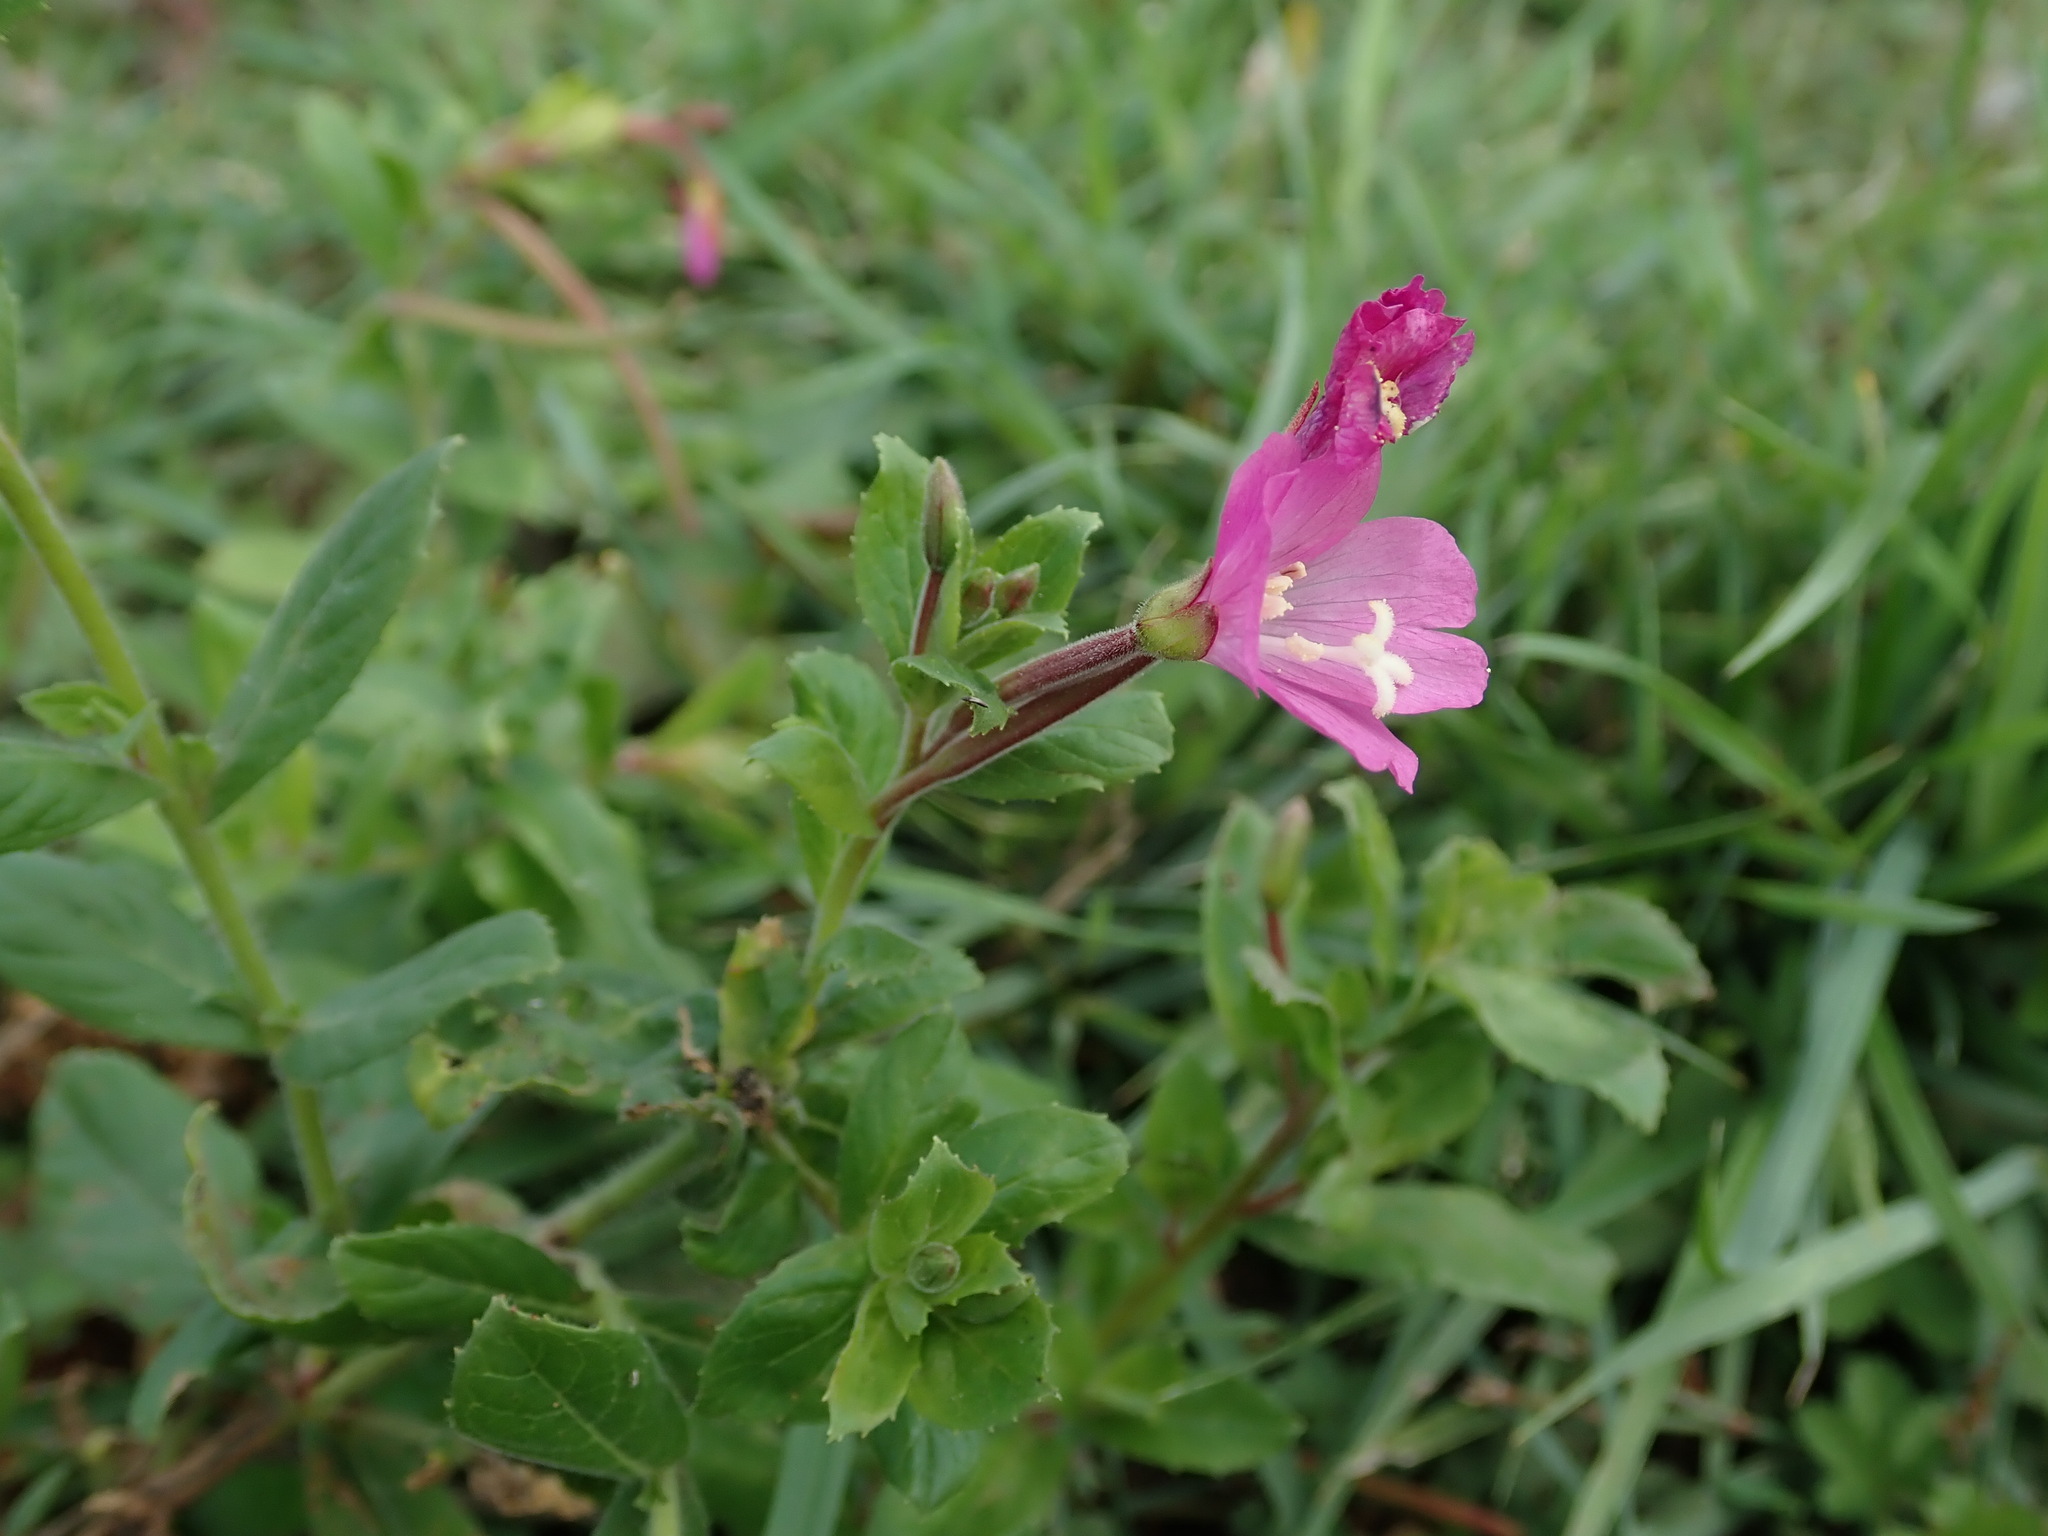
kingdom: Plantae
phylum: Tracheophyta
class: Magnoliopsida
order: Myrtales
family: Onagraceae
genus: Epilobium
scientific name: Epilobium hirsutum
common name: Great willowherb
